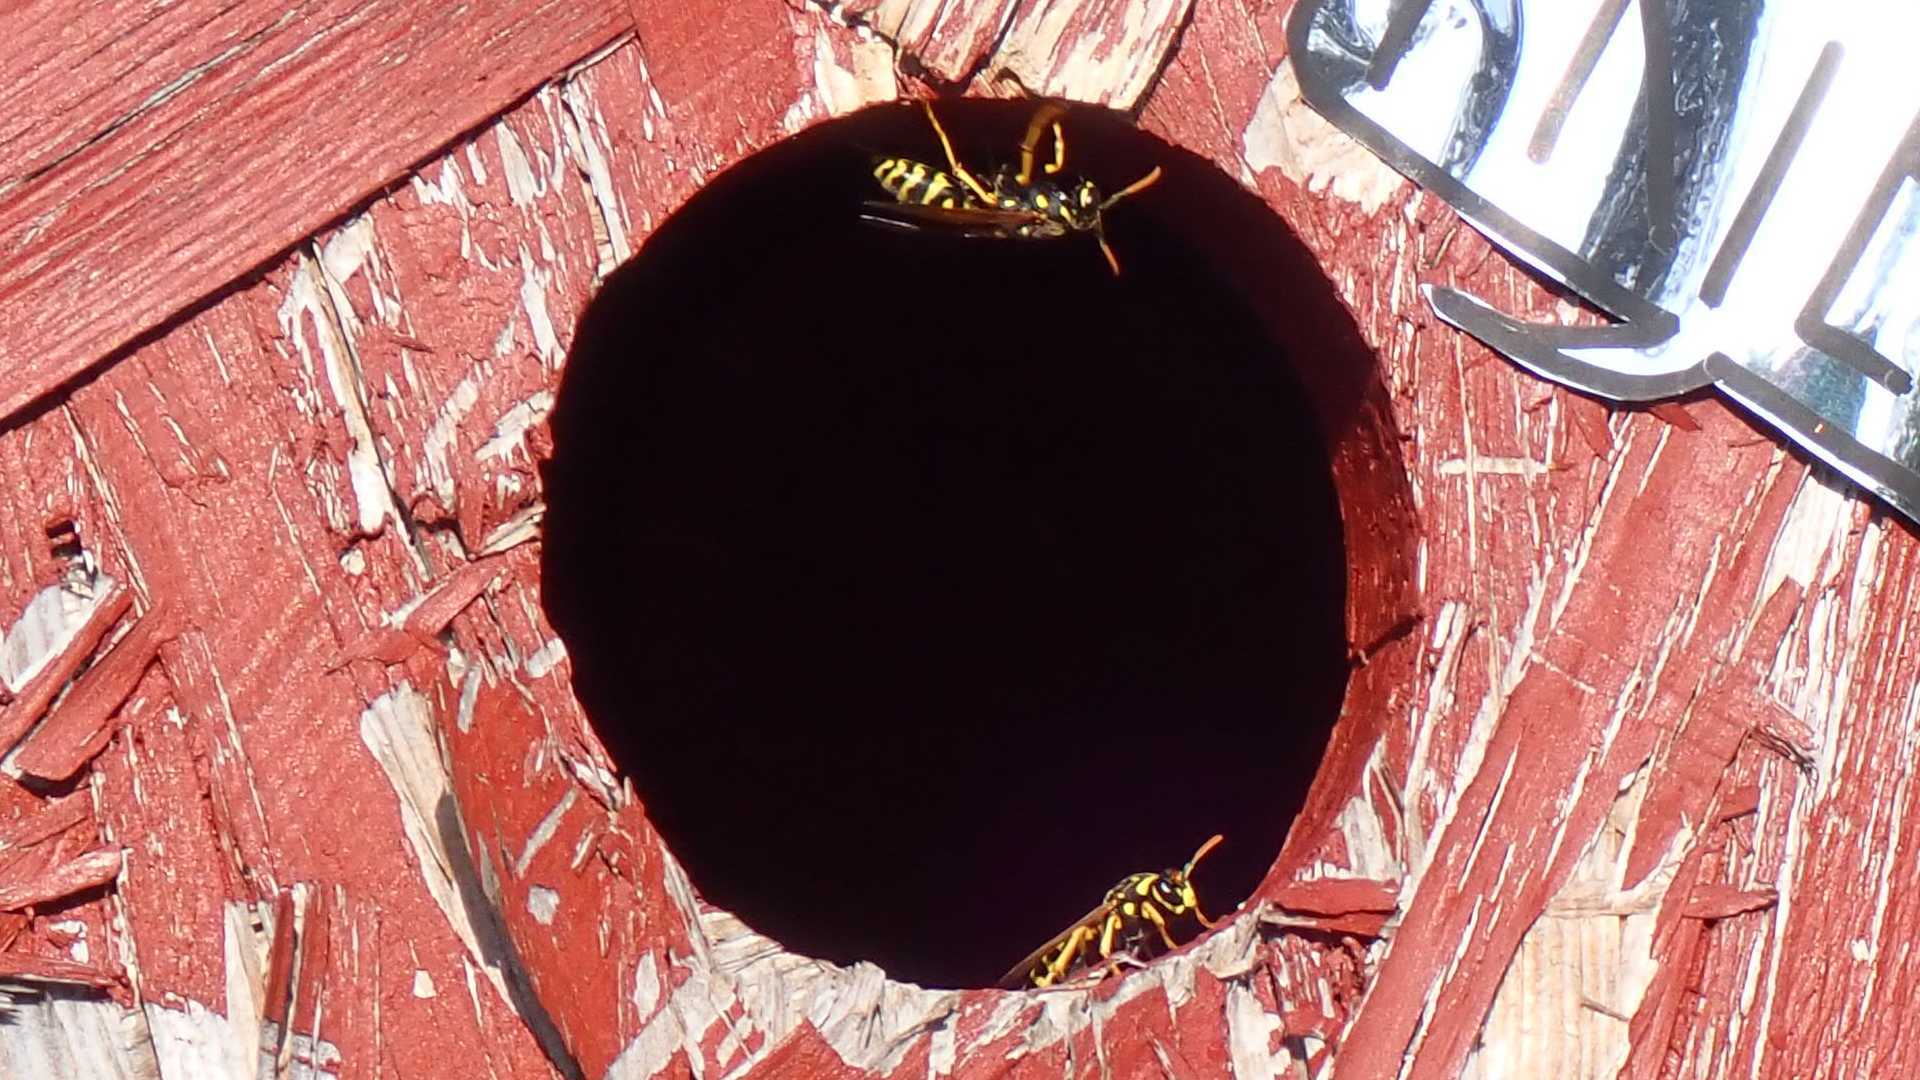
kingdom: Animalia
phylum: Arthropoda
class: Insecta
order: Hymenoptera
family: Eumenidae
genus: Polistes
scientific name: Polistes dominula
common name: Paper wasp
